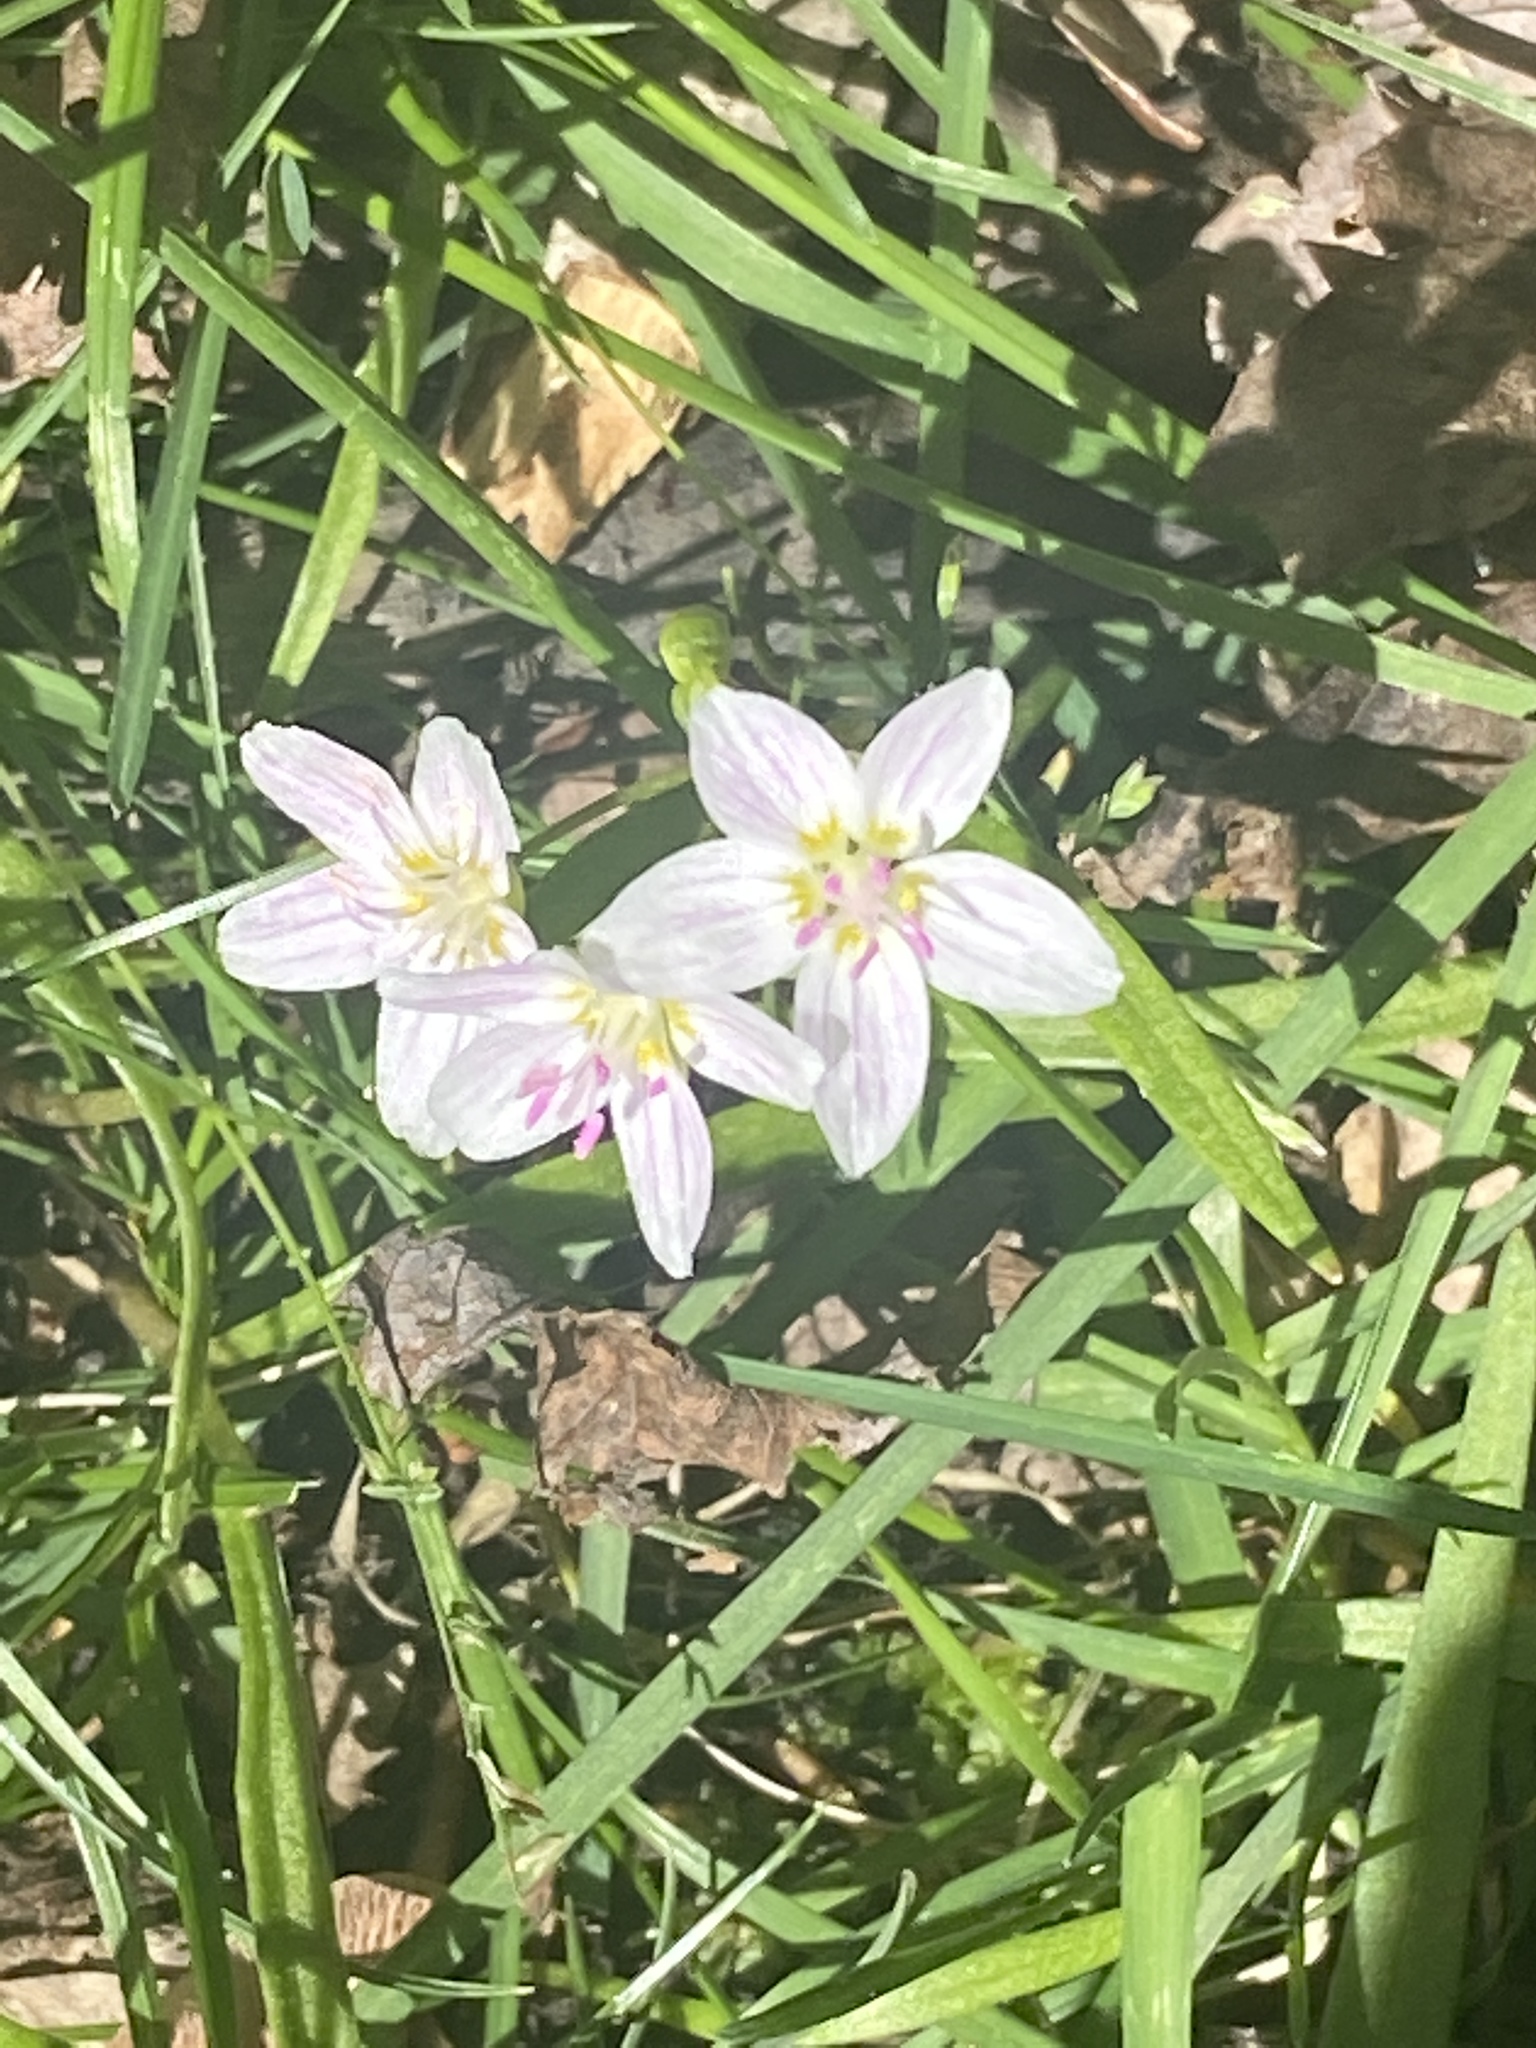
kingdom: Plantae
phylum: Tracheophyta
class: Magnoliopsida
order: Caryophyllales
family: Montiaceae
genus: Claytonia
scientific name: Claytonia virginica
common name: Virginia springbeauty
